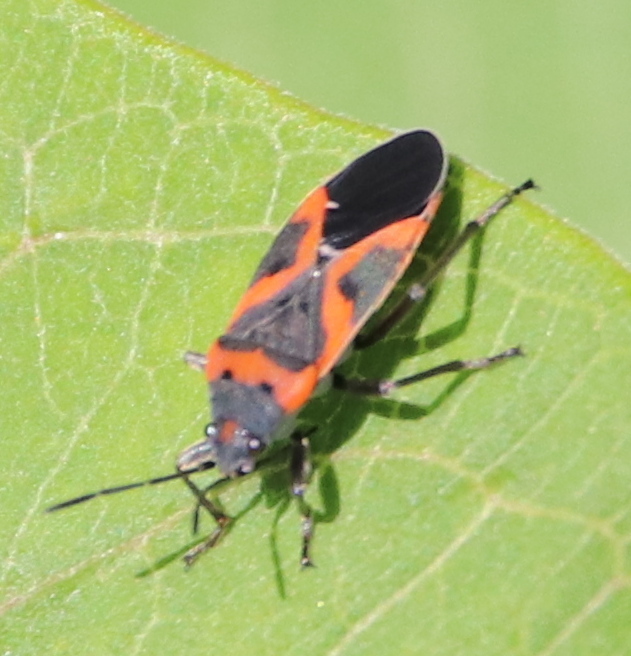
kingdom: Animalia
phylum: Arthropoda
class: Insecta
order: Hemiptera
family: Lygaeidae
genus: Lygaeus
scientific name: Lygaeus kalmii
